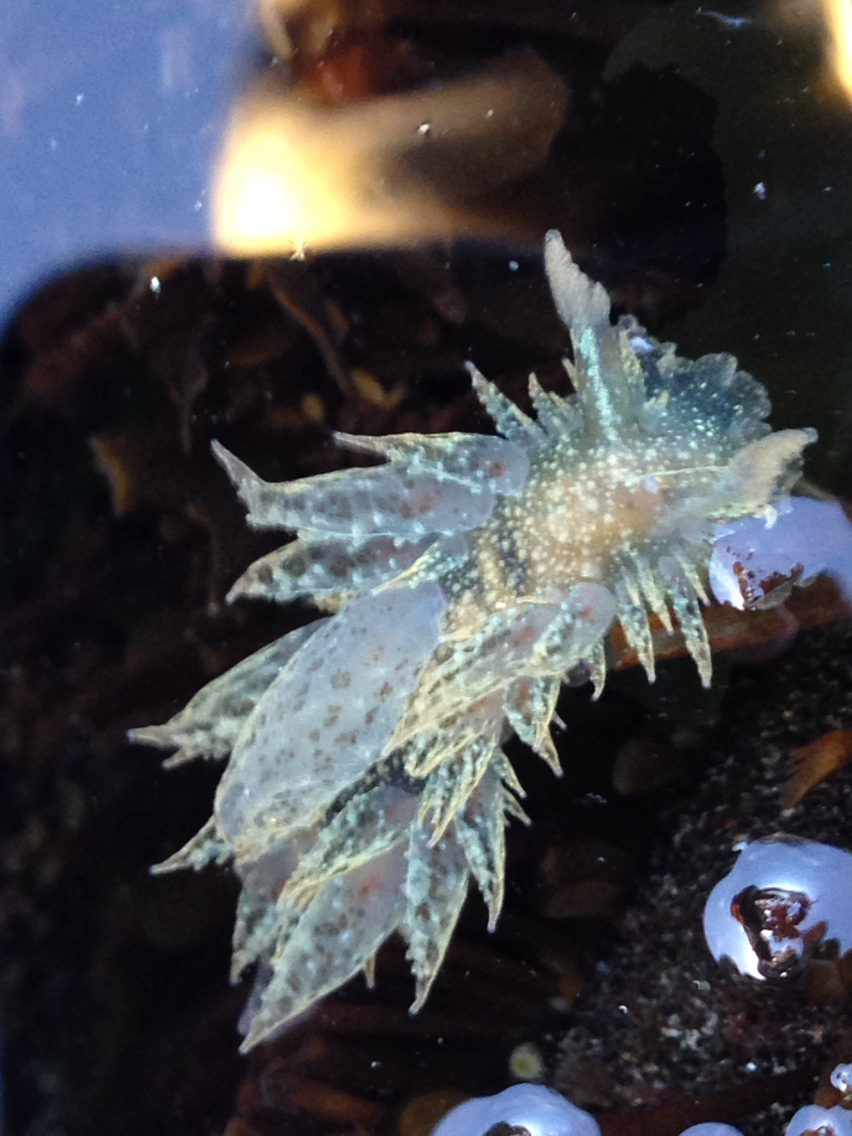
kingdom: Animalia
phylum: Mollusca
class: Gastropoda
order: Nudibranchia
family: Dironidae
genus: Dirona
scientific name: Dirona picta
